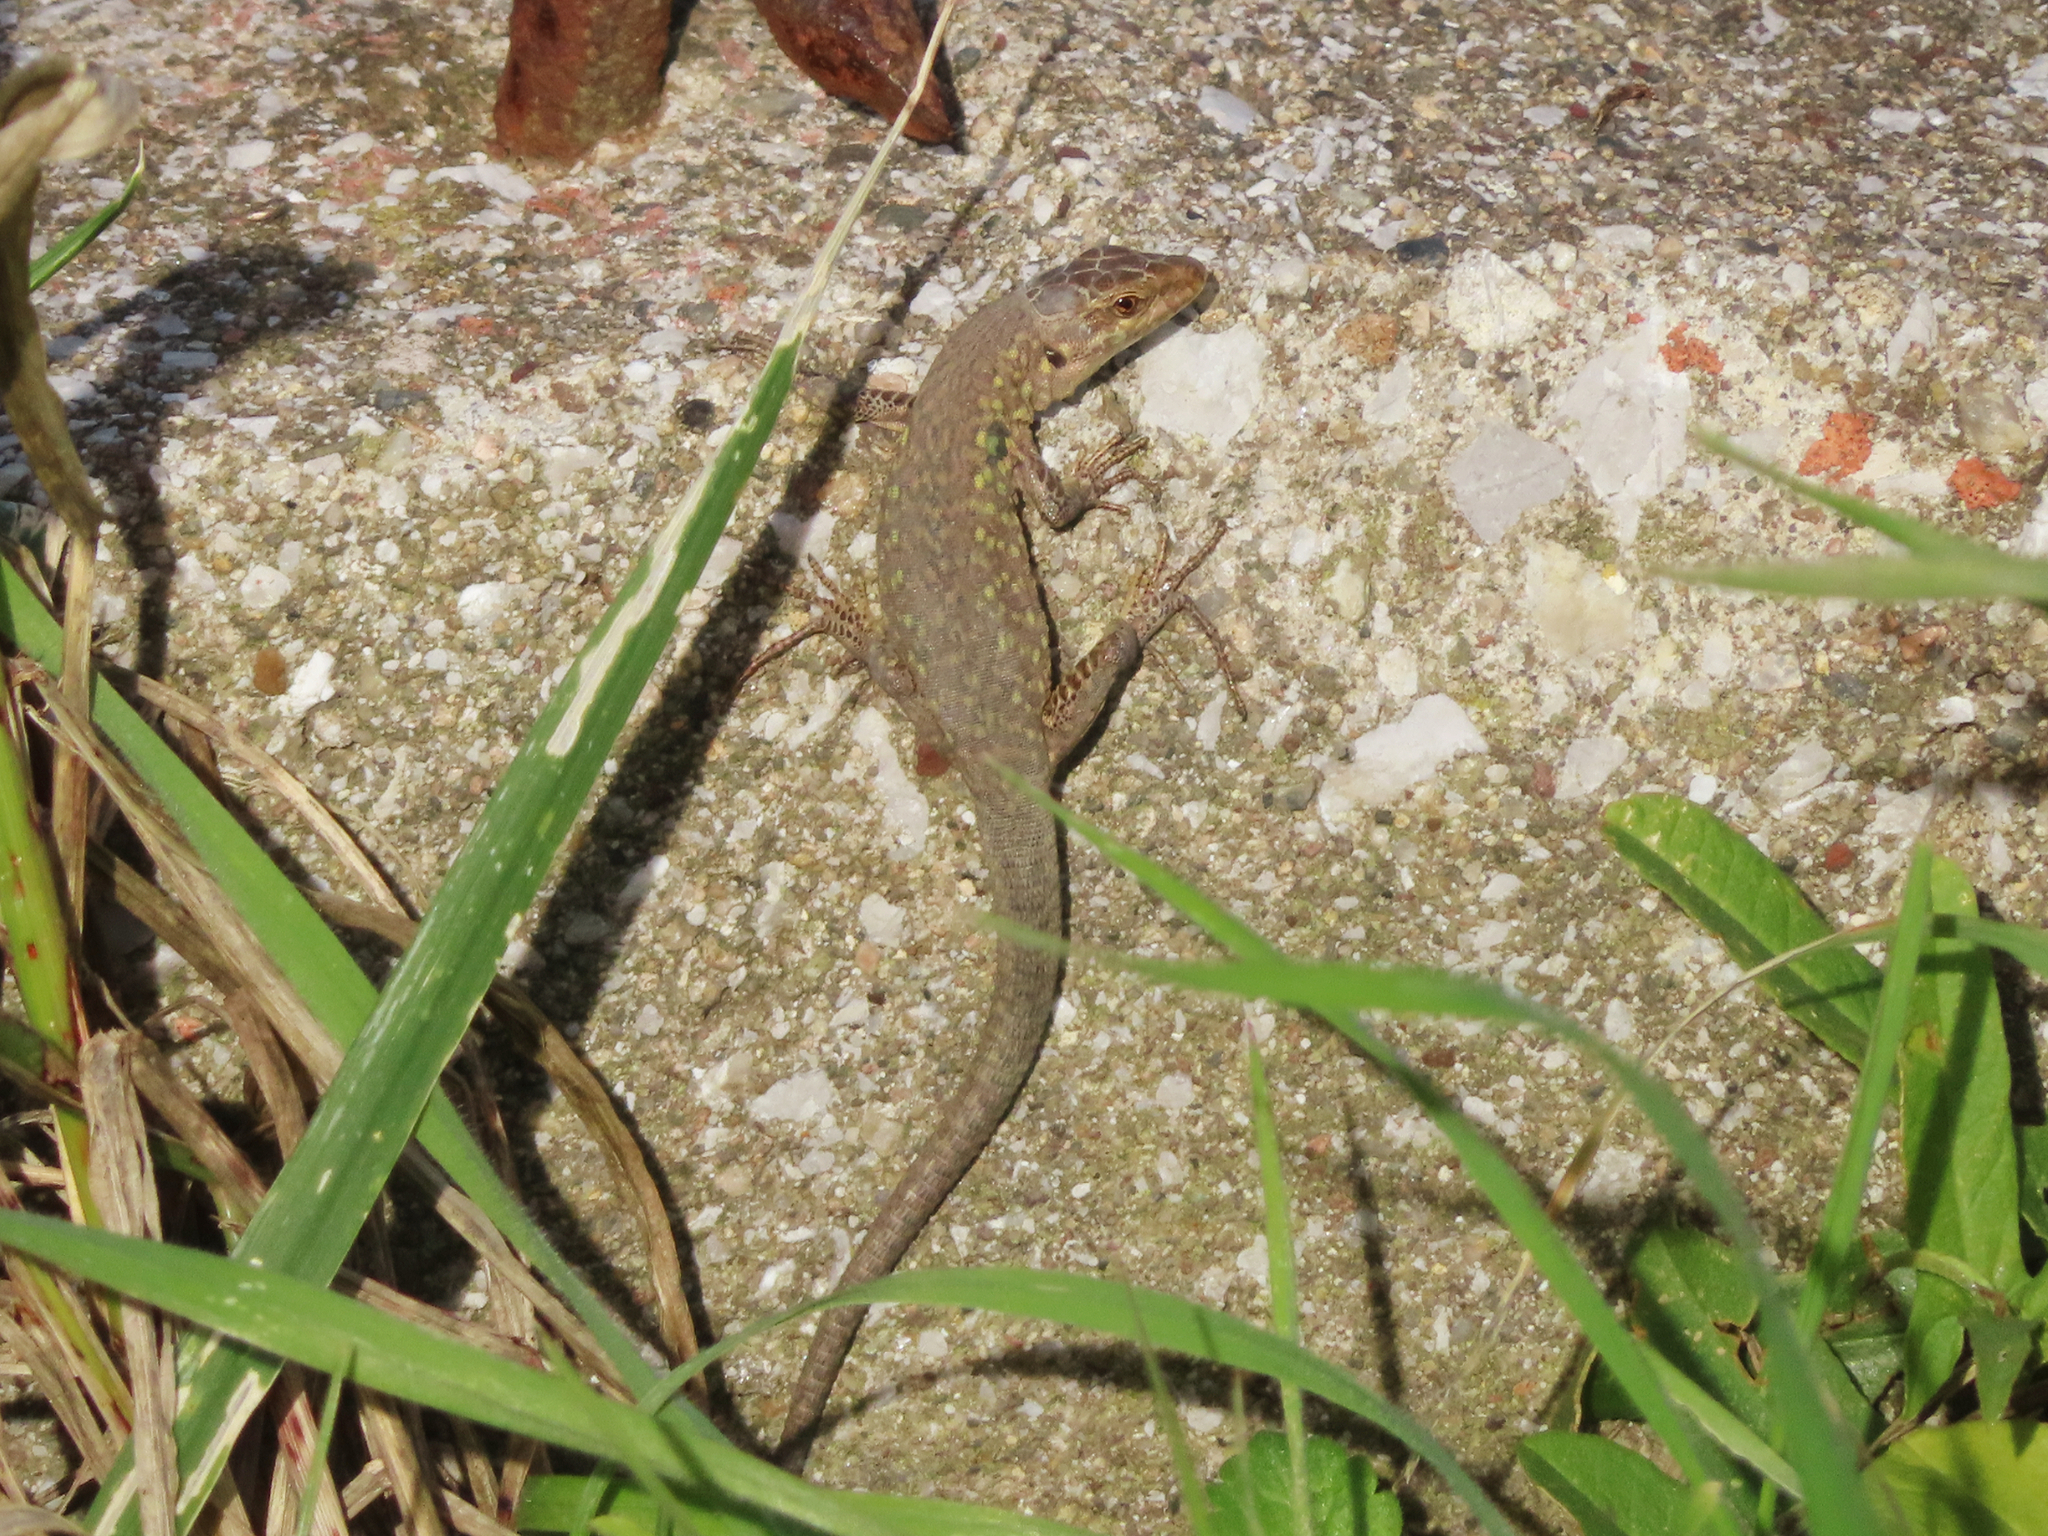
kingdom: Animalia
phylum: Chordata
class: Squamata
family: Lacertidae
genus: Podarcis
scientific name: Podarcis siculus
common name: Italian wall lizard
